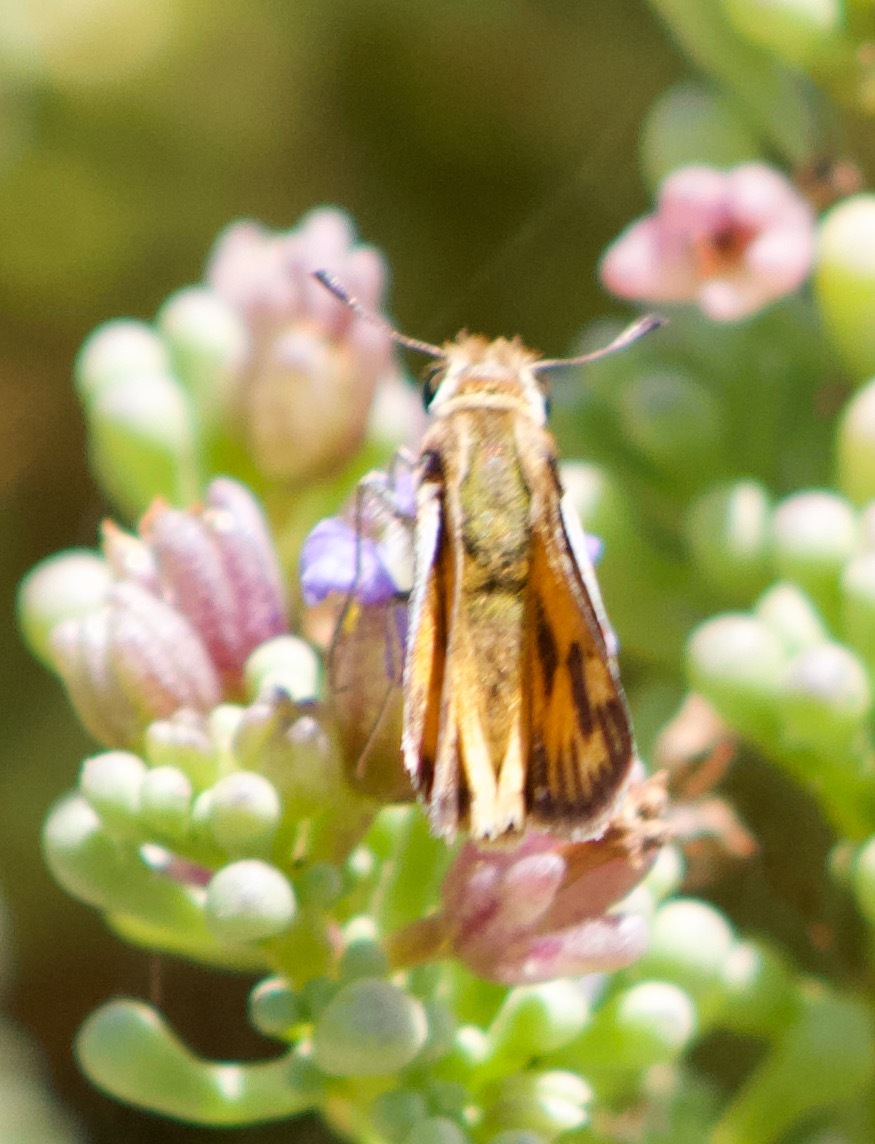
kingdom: Animalia
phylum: Arthropoda
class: Insecta
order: Lepidoptera
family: Hesperiidae
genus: Hylephila
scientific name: Hylephila fasciolata
